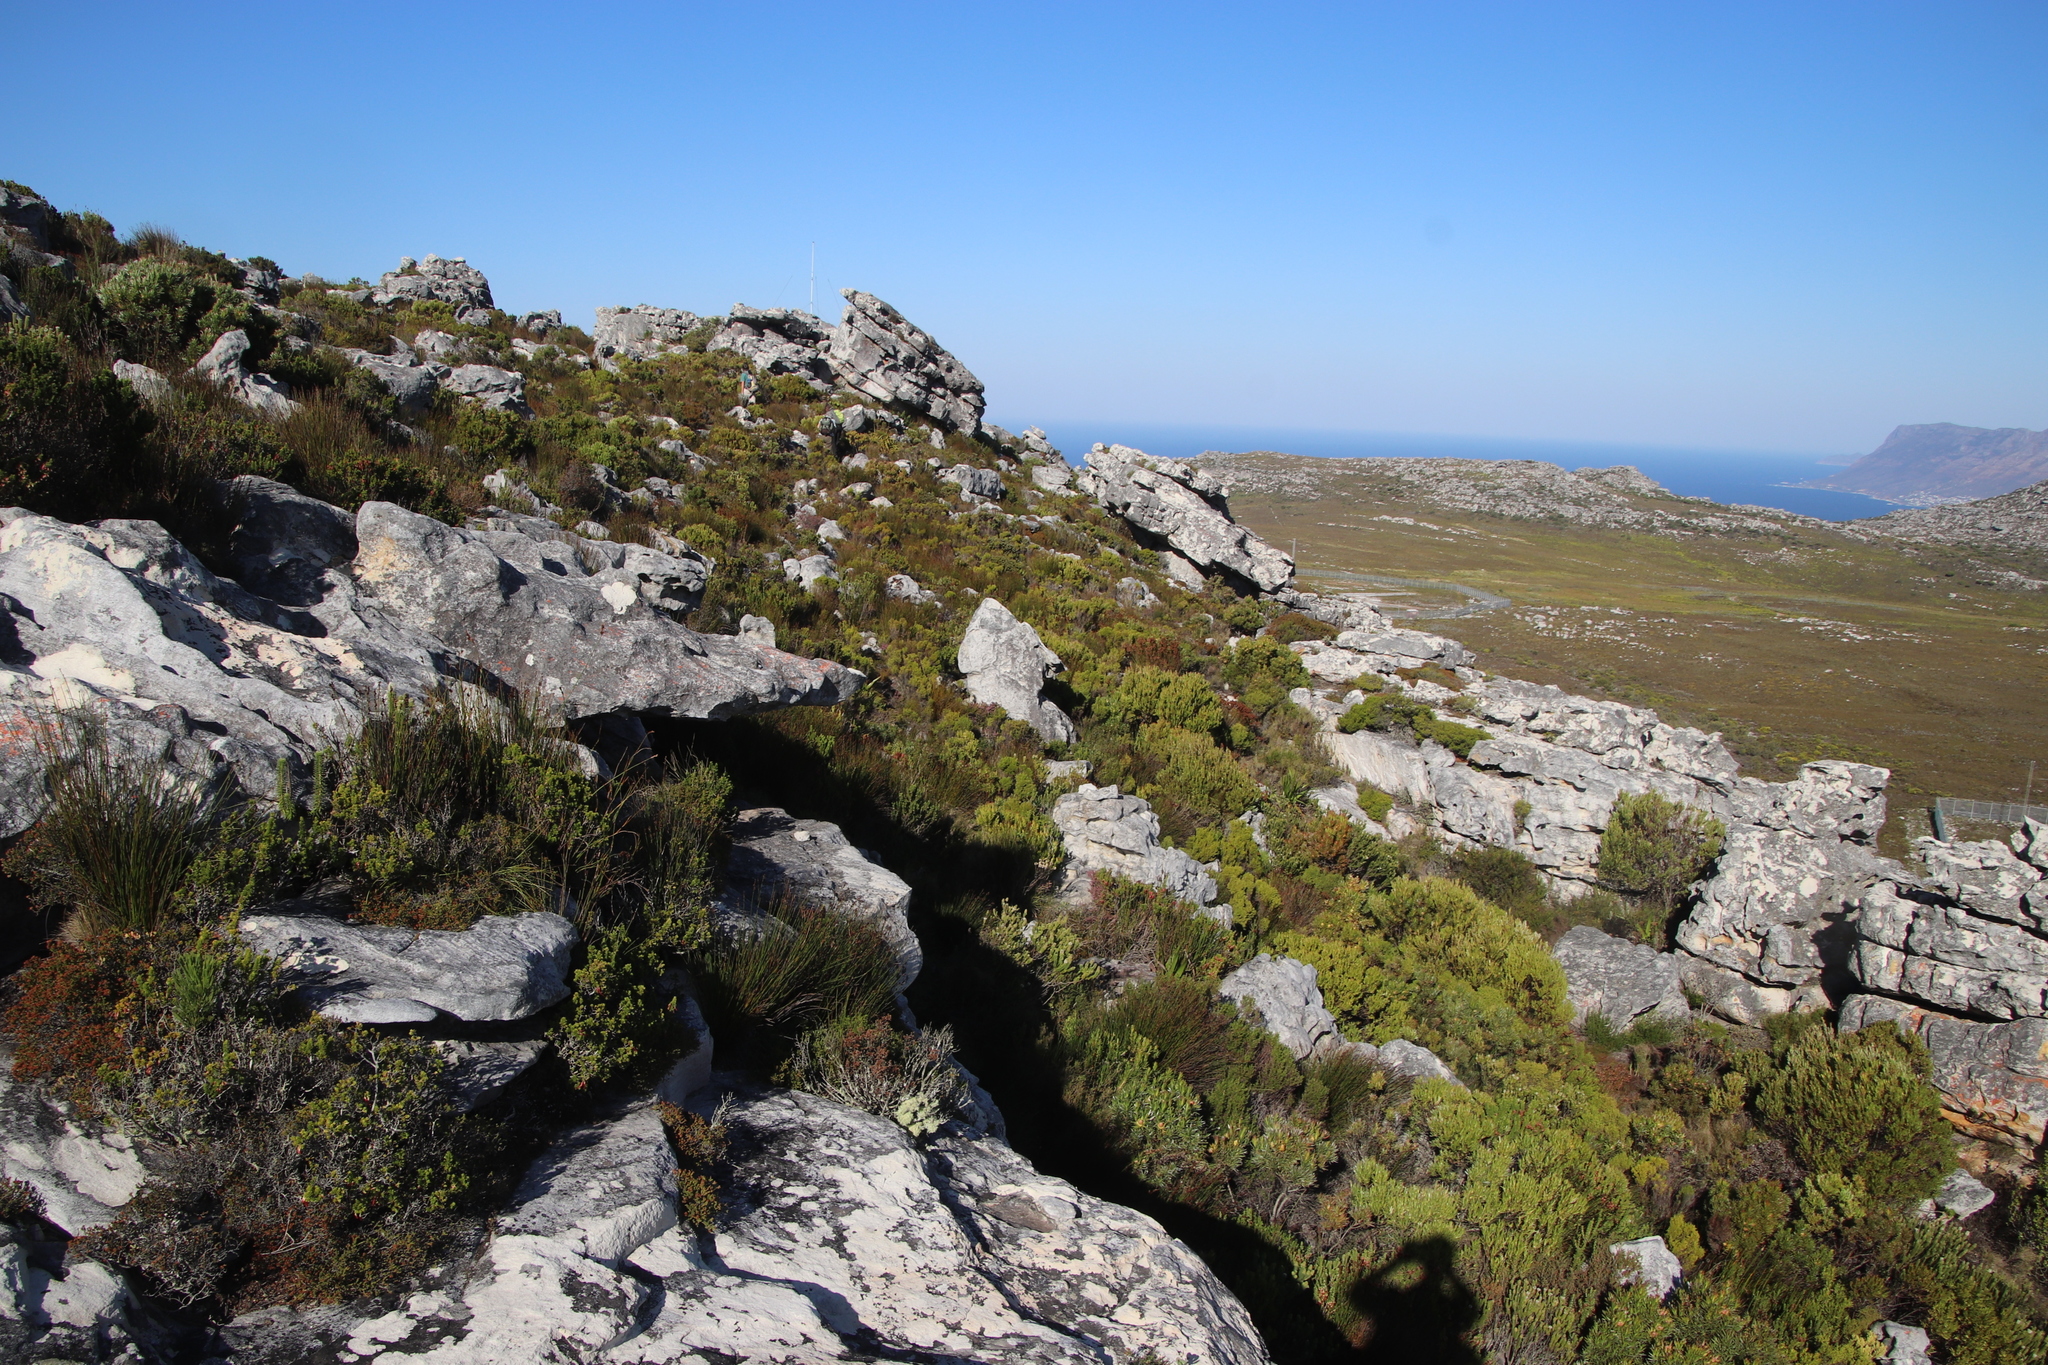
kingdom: Plantae
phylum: Tracheophyta
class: Magnoliopsida
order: Ericales
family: Ericaceae
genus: Erica
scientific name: Erica coccinea
